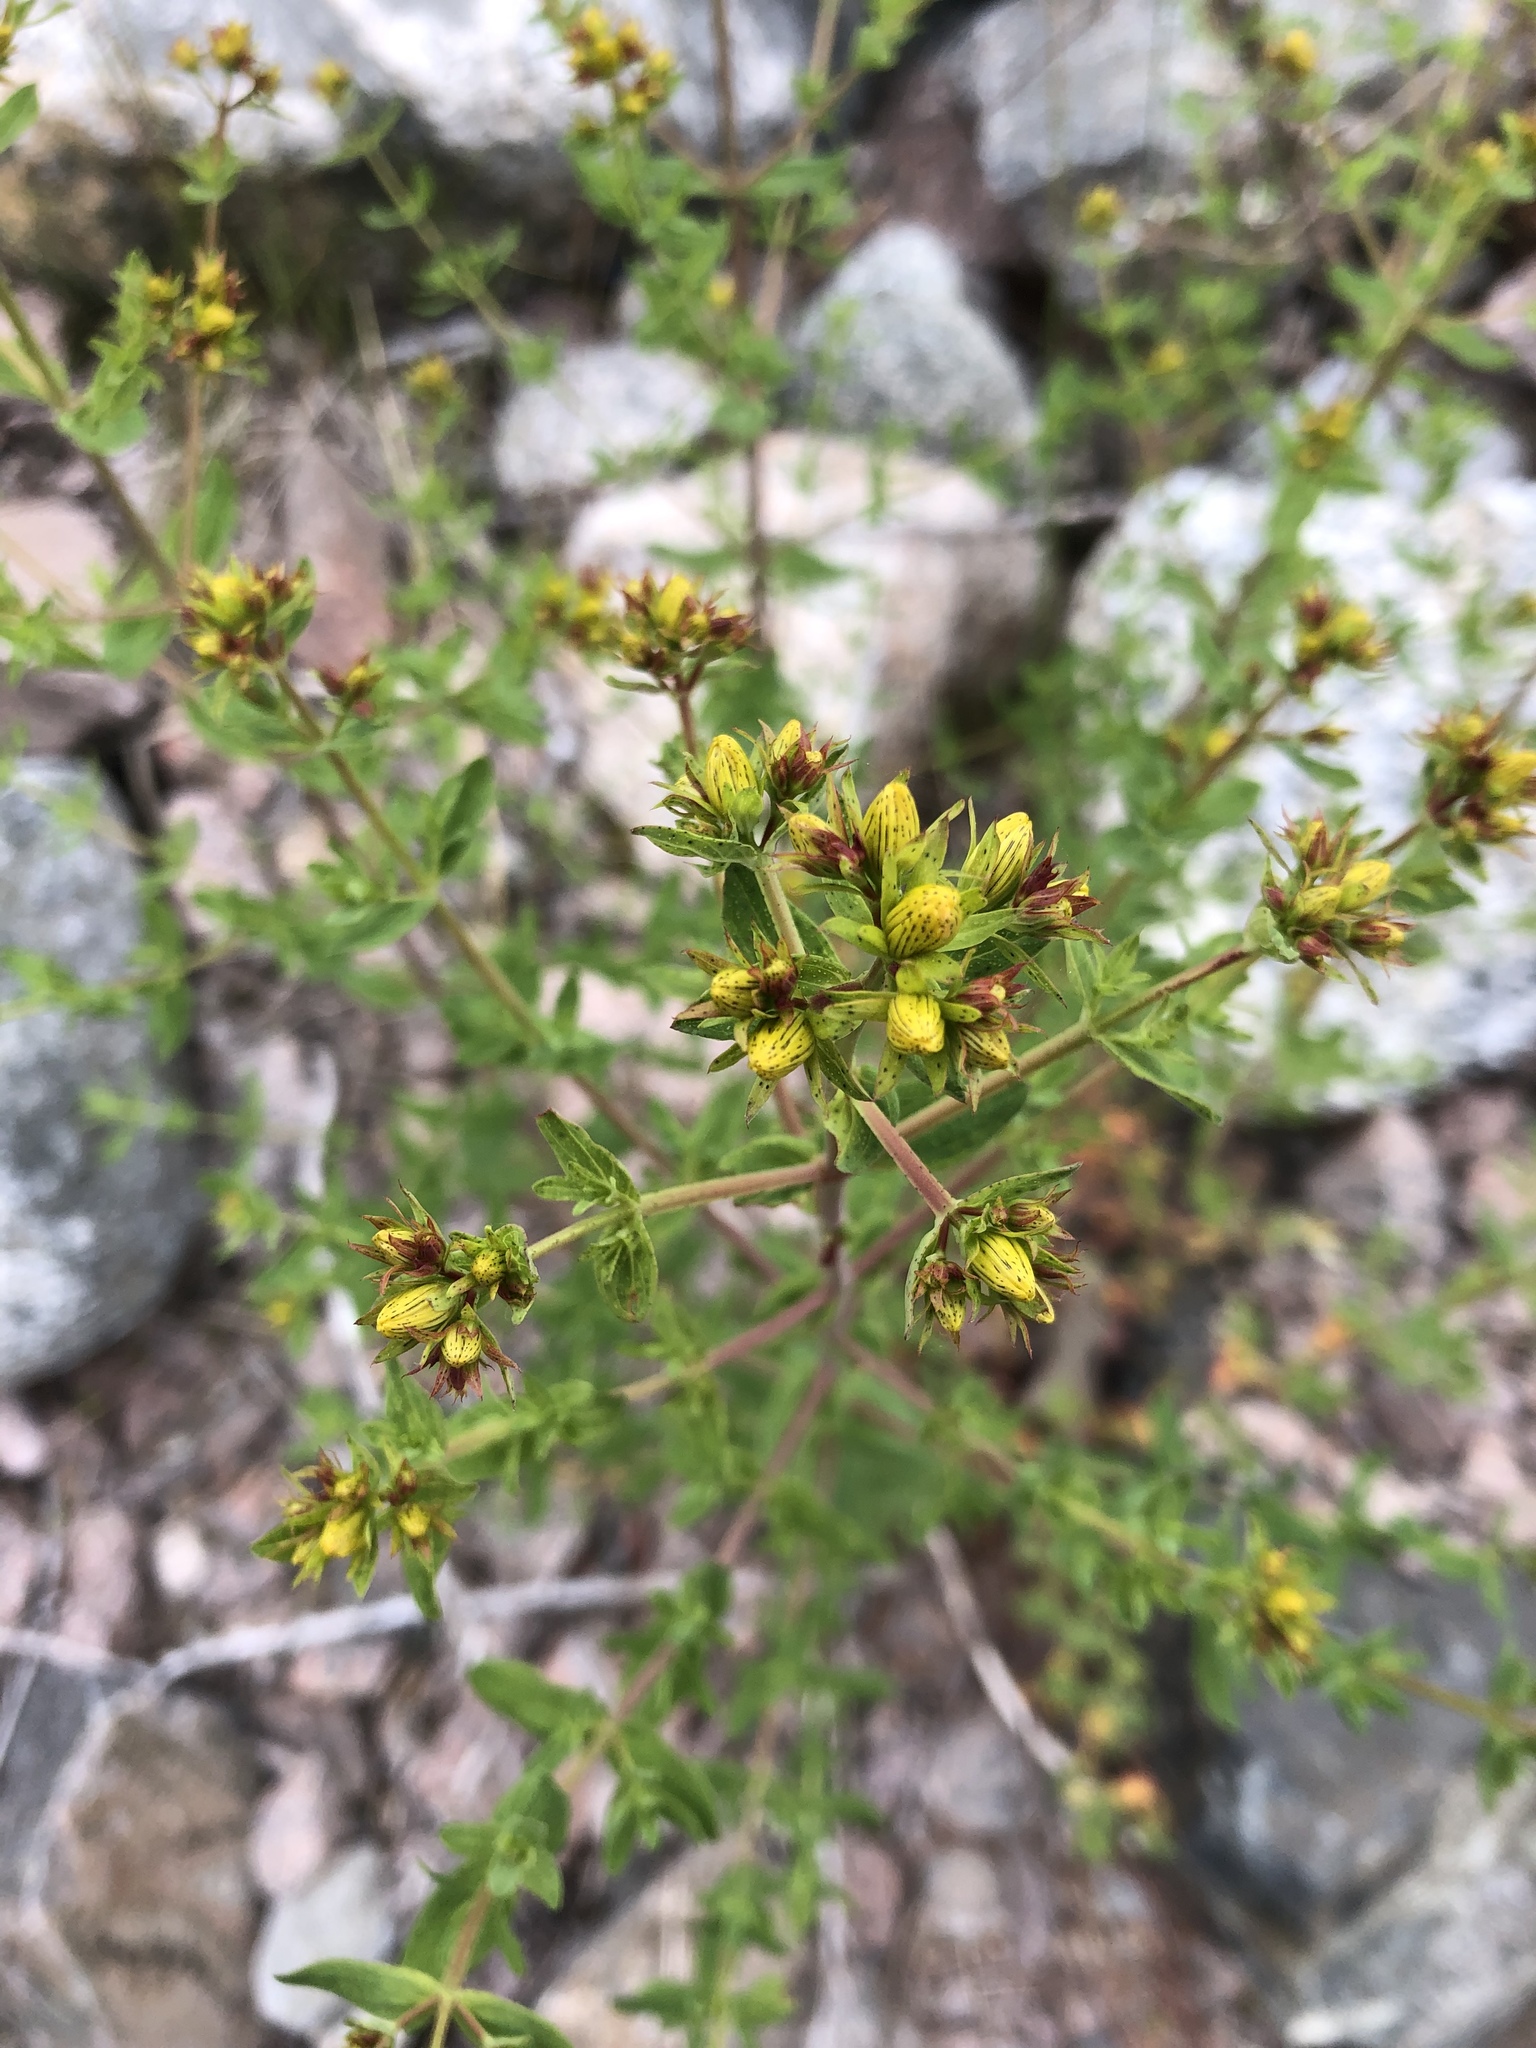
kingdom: Plantae
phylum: Tracheophyta
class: Magnoliopsida
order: Malpighiales
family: Hypericaceae
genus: Hypericum
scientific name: Hypericum perforatum
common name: Common st. johnswort
